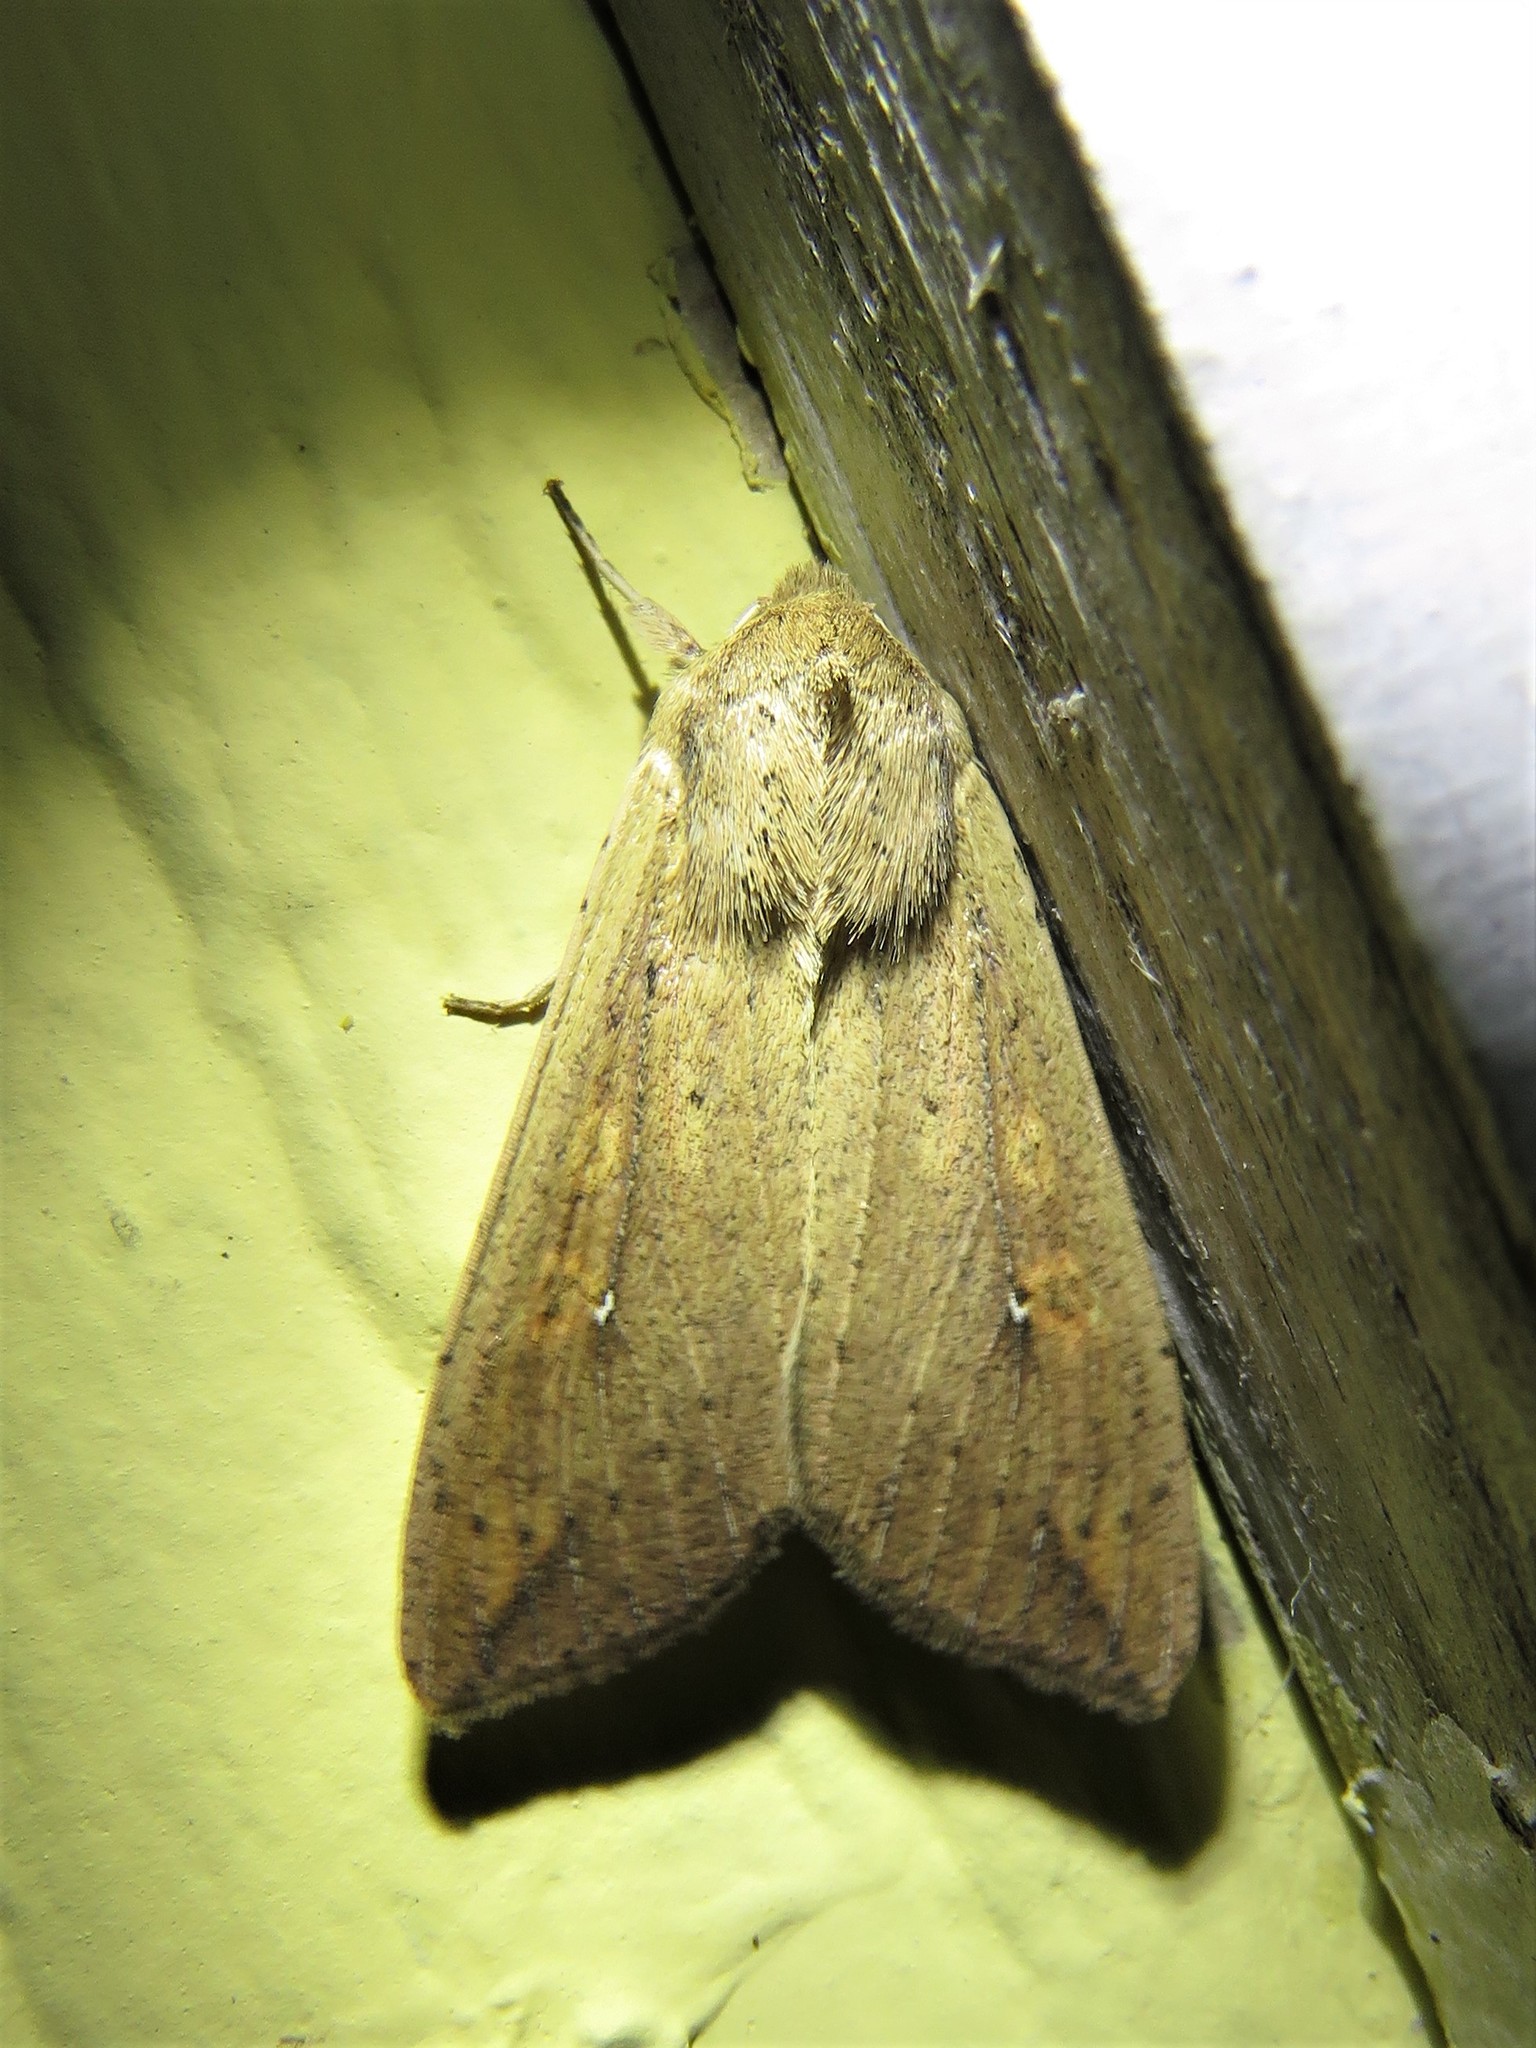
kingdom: Animalia
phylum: Arthropoda
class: Insecta
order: Lepidoptera
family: Noctuidae
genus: Mythimna
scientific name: Mythimna unipuncta
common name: White-speck
